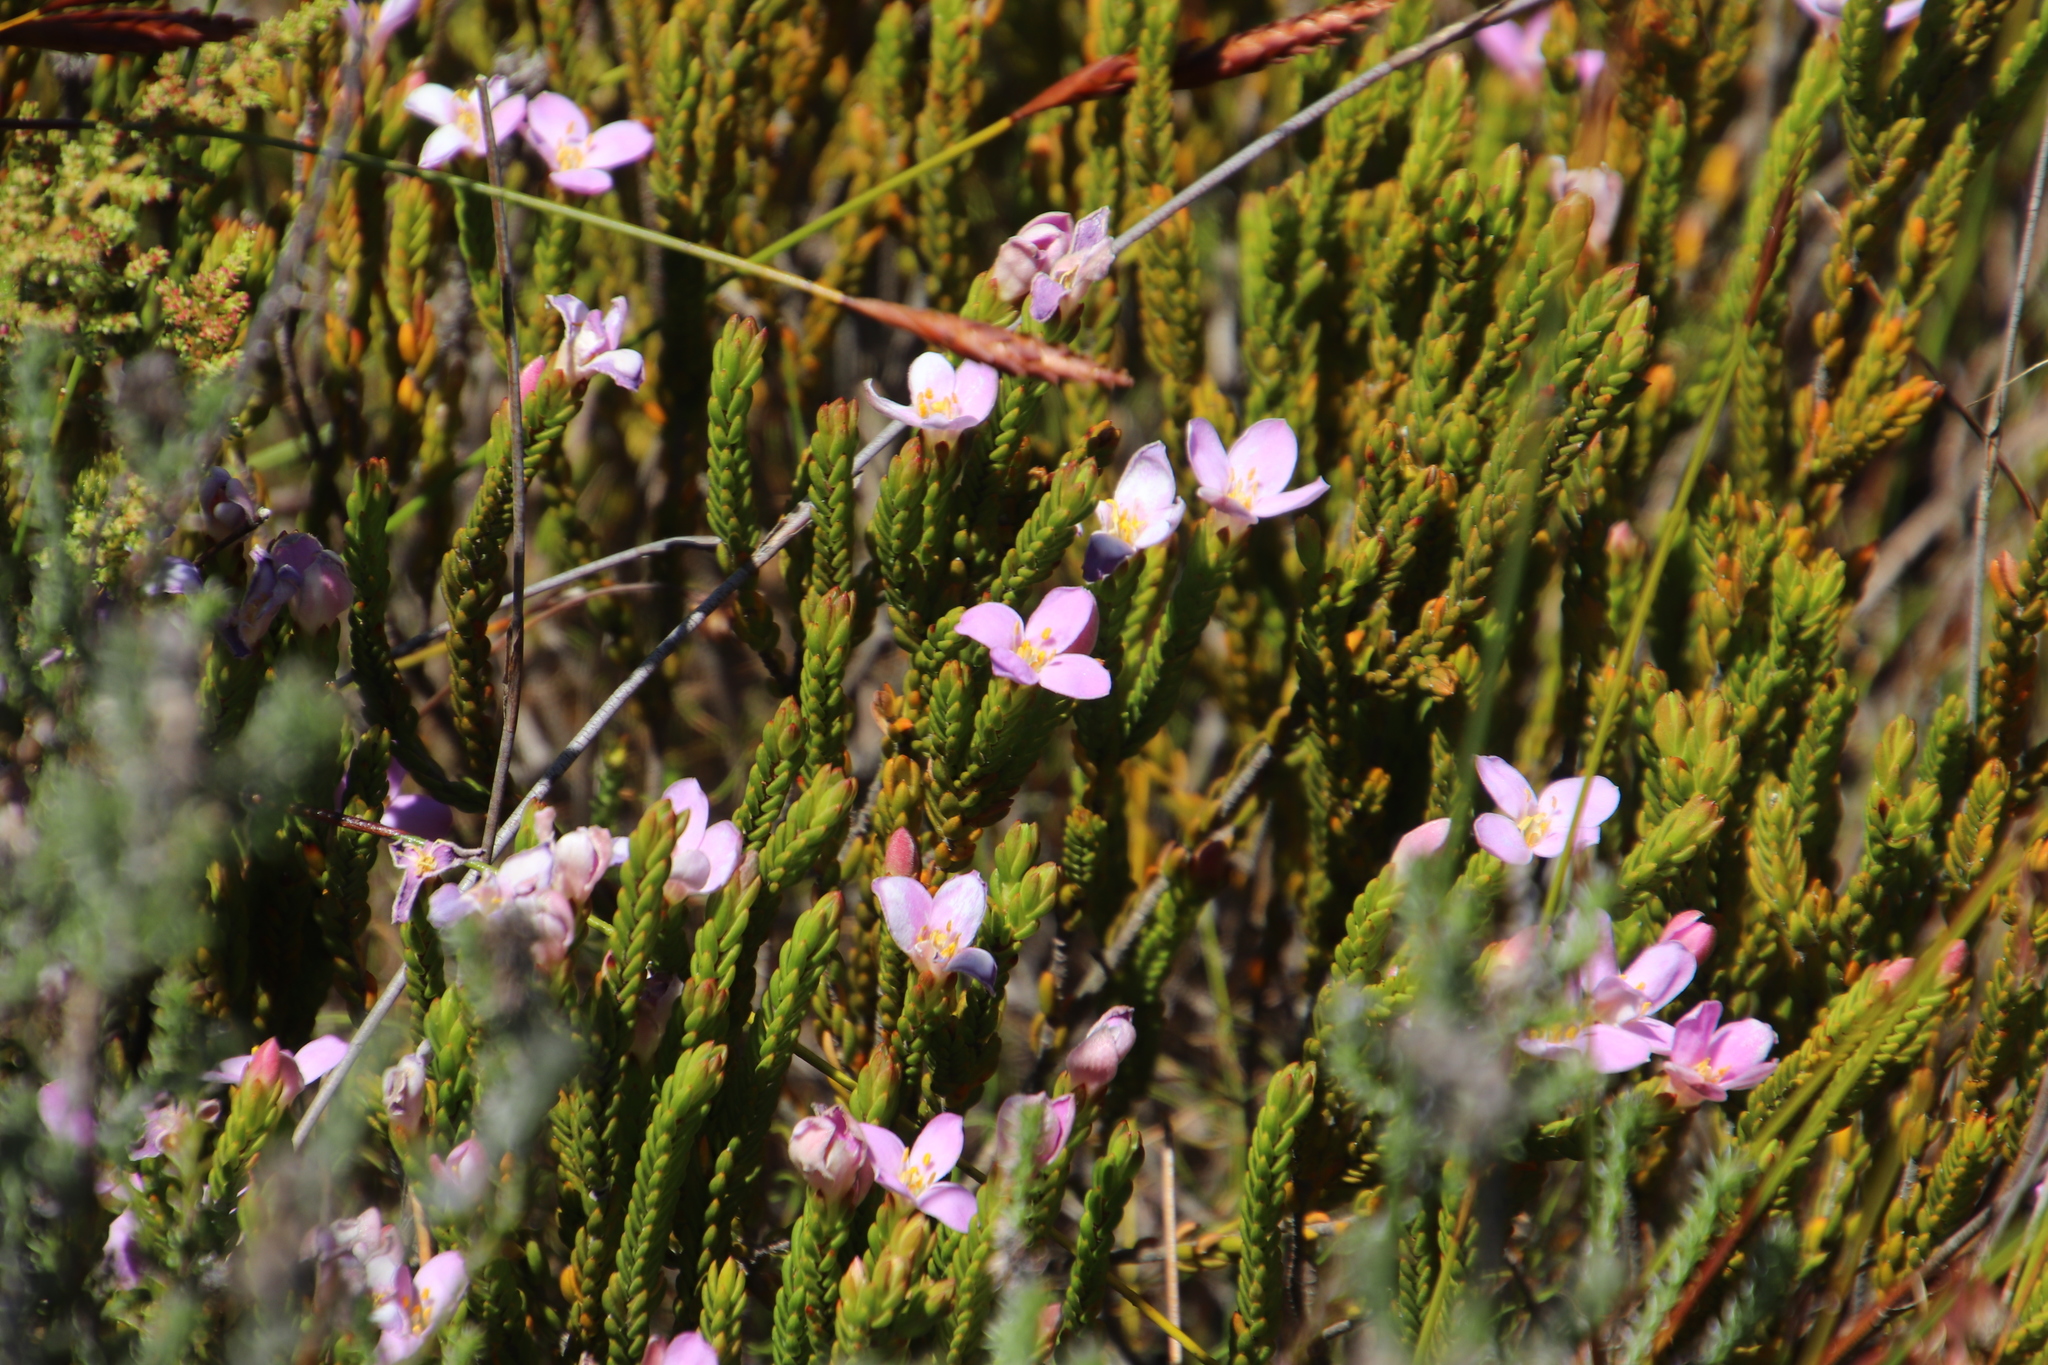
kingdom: Plantae
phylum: Tracheophyta
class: Magnoliopsida
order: Malvales
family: Thymelaeaceae
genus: Lachnaea
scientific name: Lachnaea grandiflora
